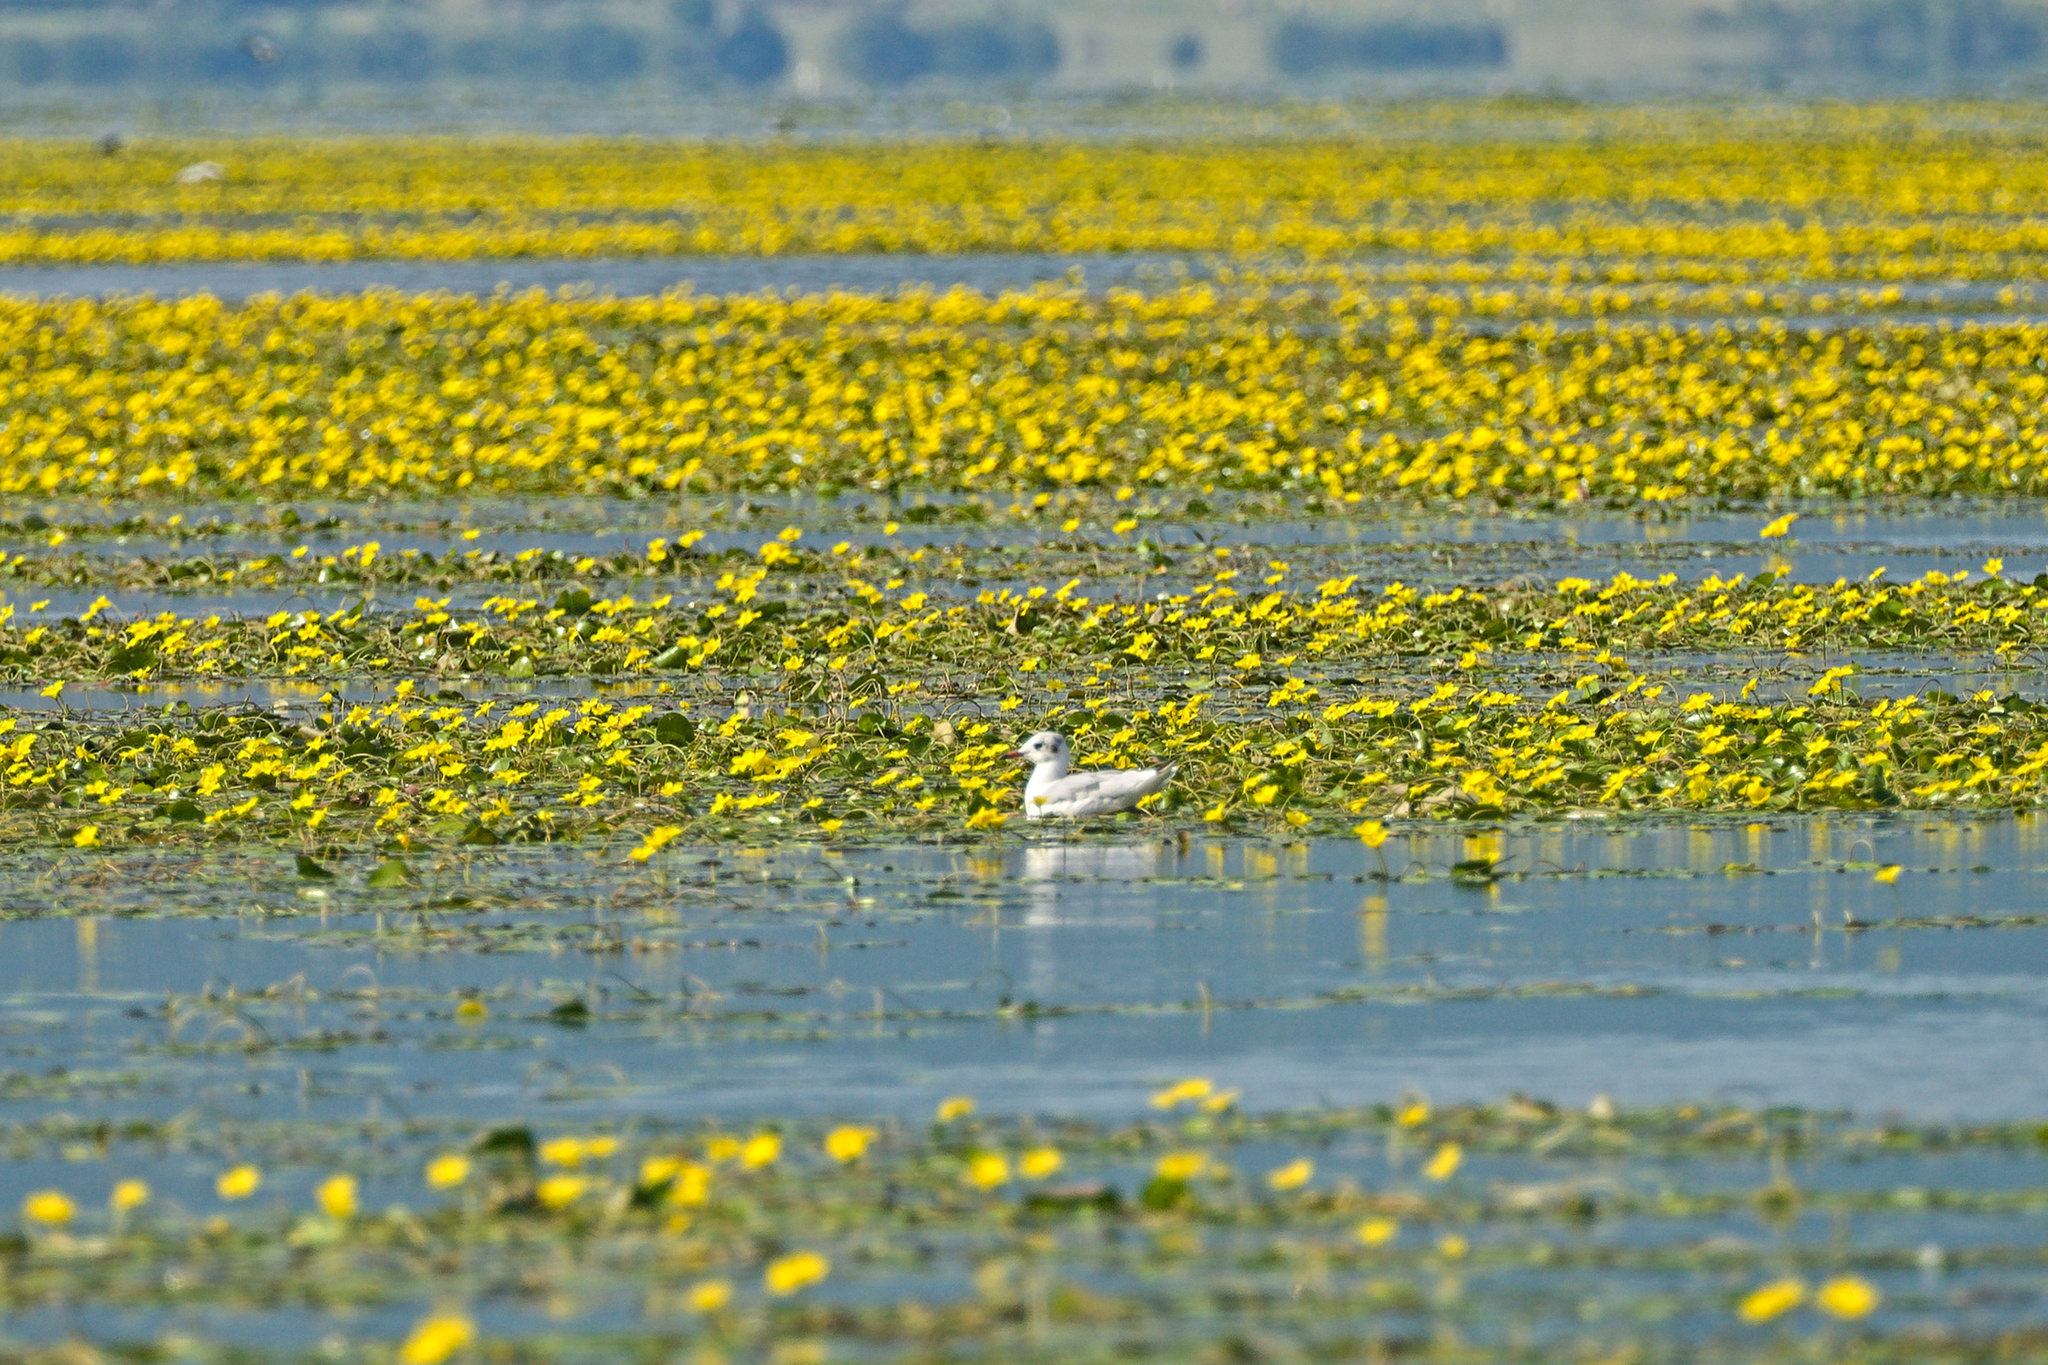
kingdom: Animalia
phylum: Chordata
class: Aves
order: Charadriiformes
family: Laridae
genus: Chroicocephalus
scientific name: Chroicocephalus ridibundus
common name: Black-headed gull
